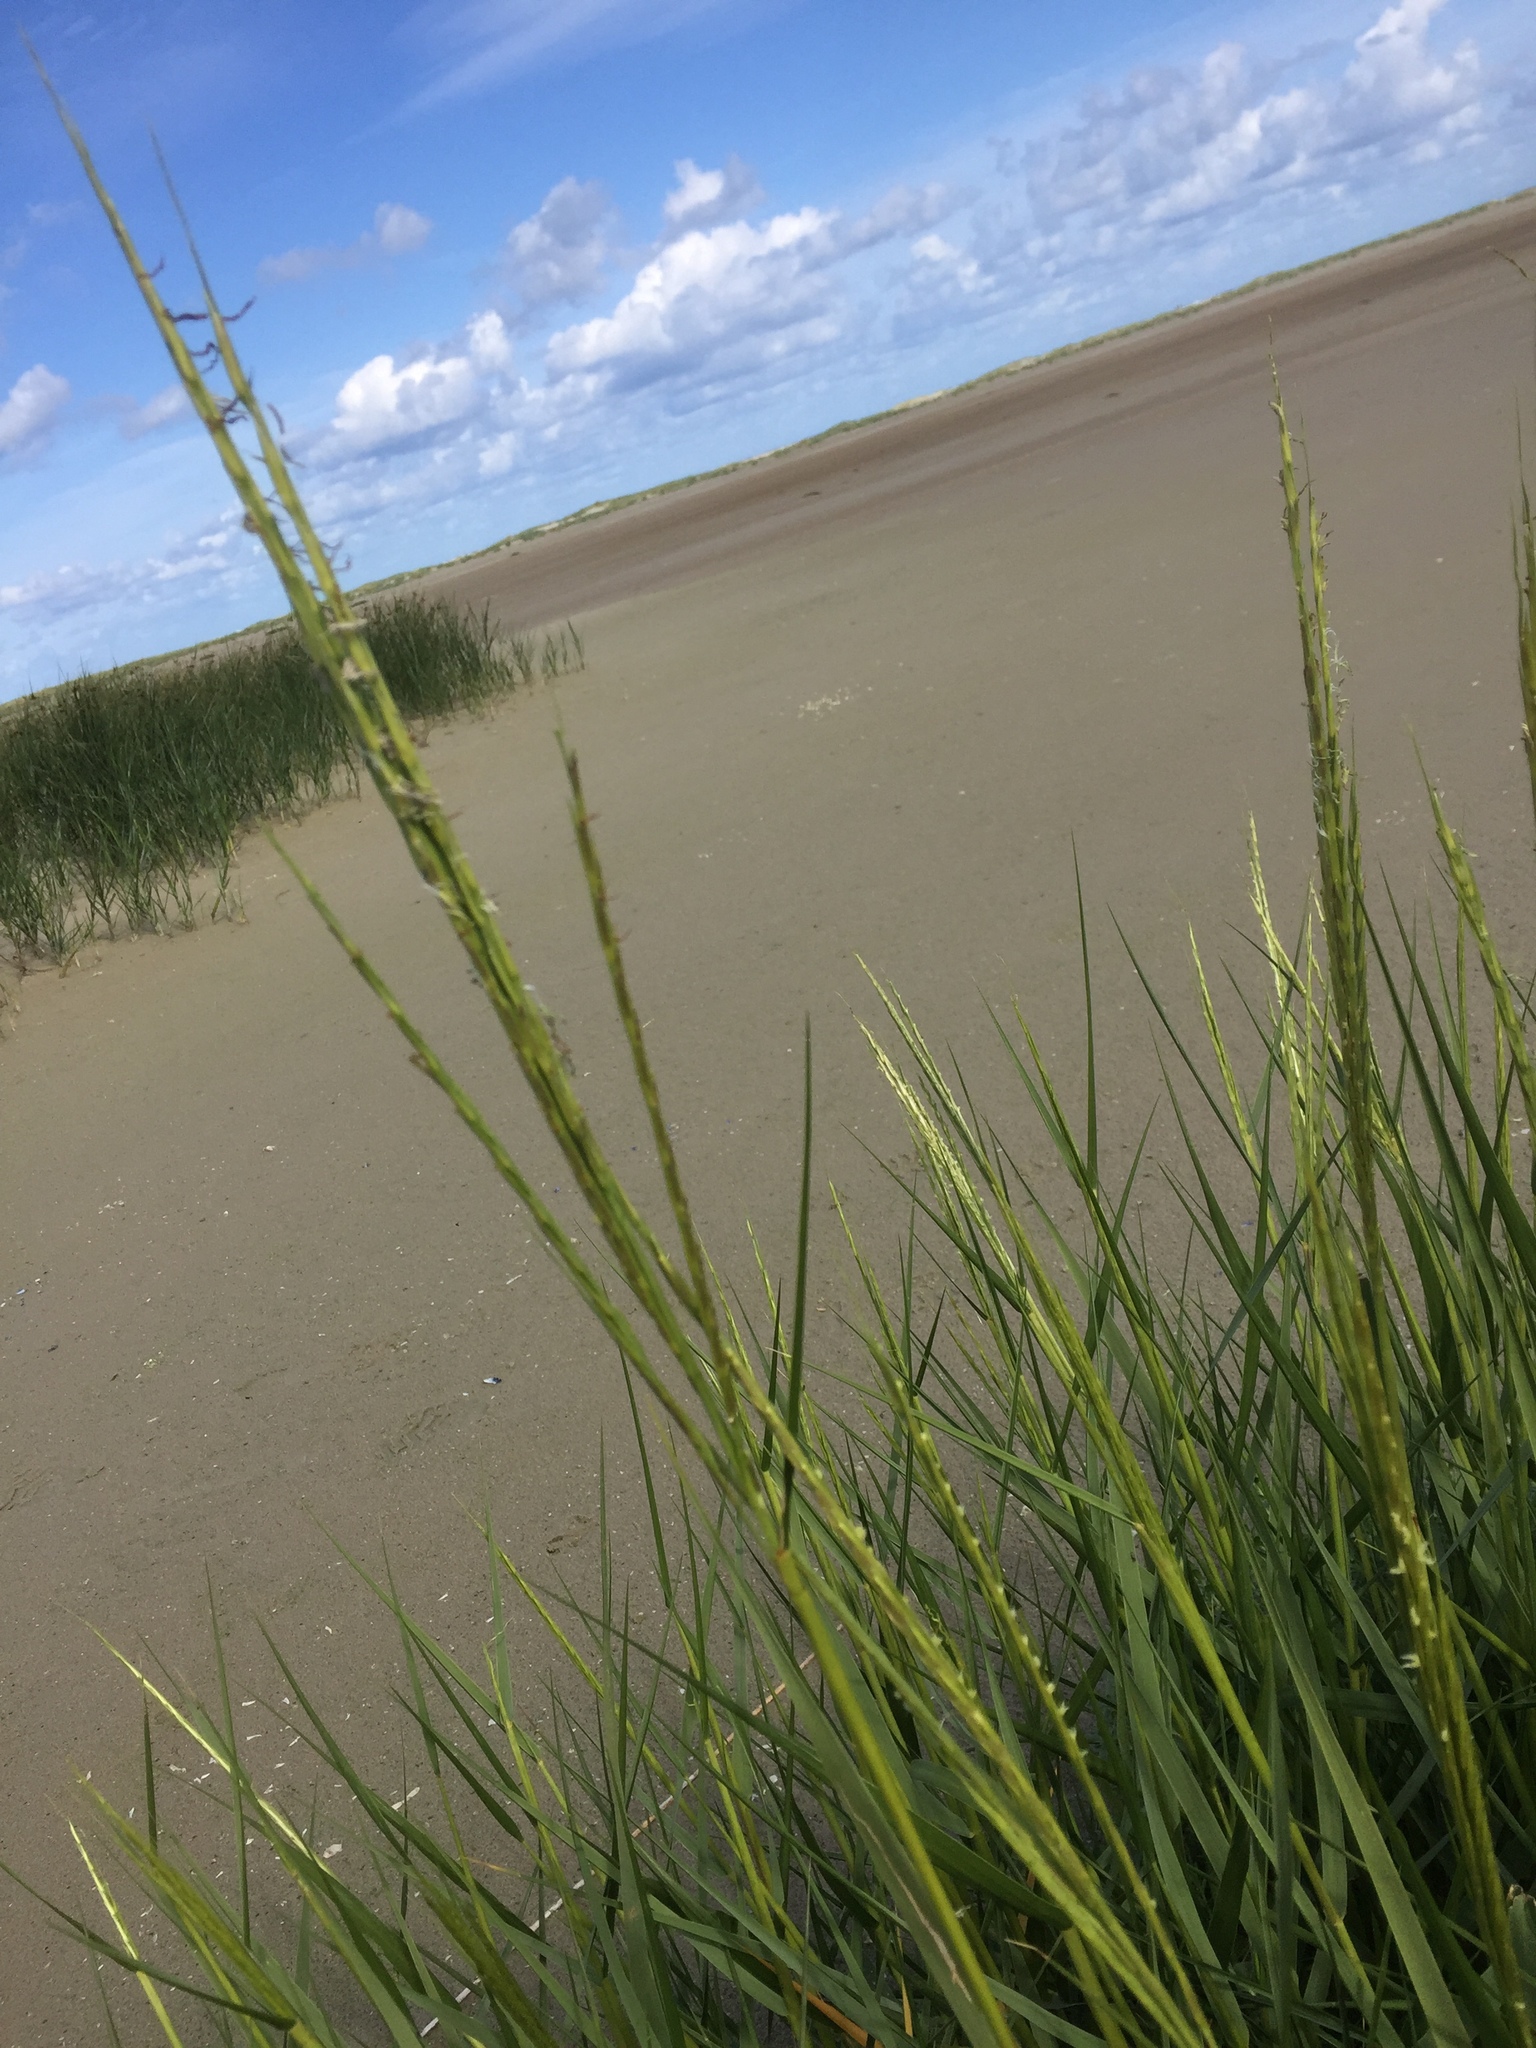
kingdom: Plantae
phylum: Tracheophyta
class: Liliopsida
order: Poales
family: Poaceae
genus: Sporobolus
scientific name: Sporobolus anglicus
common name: English cordgrass
